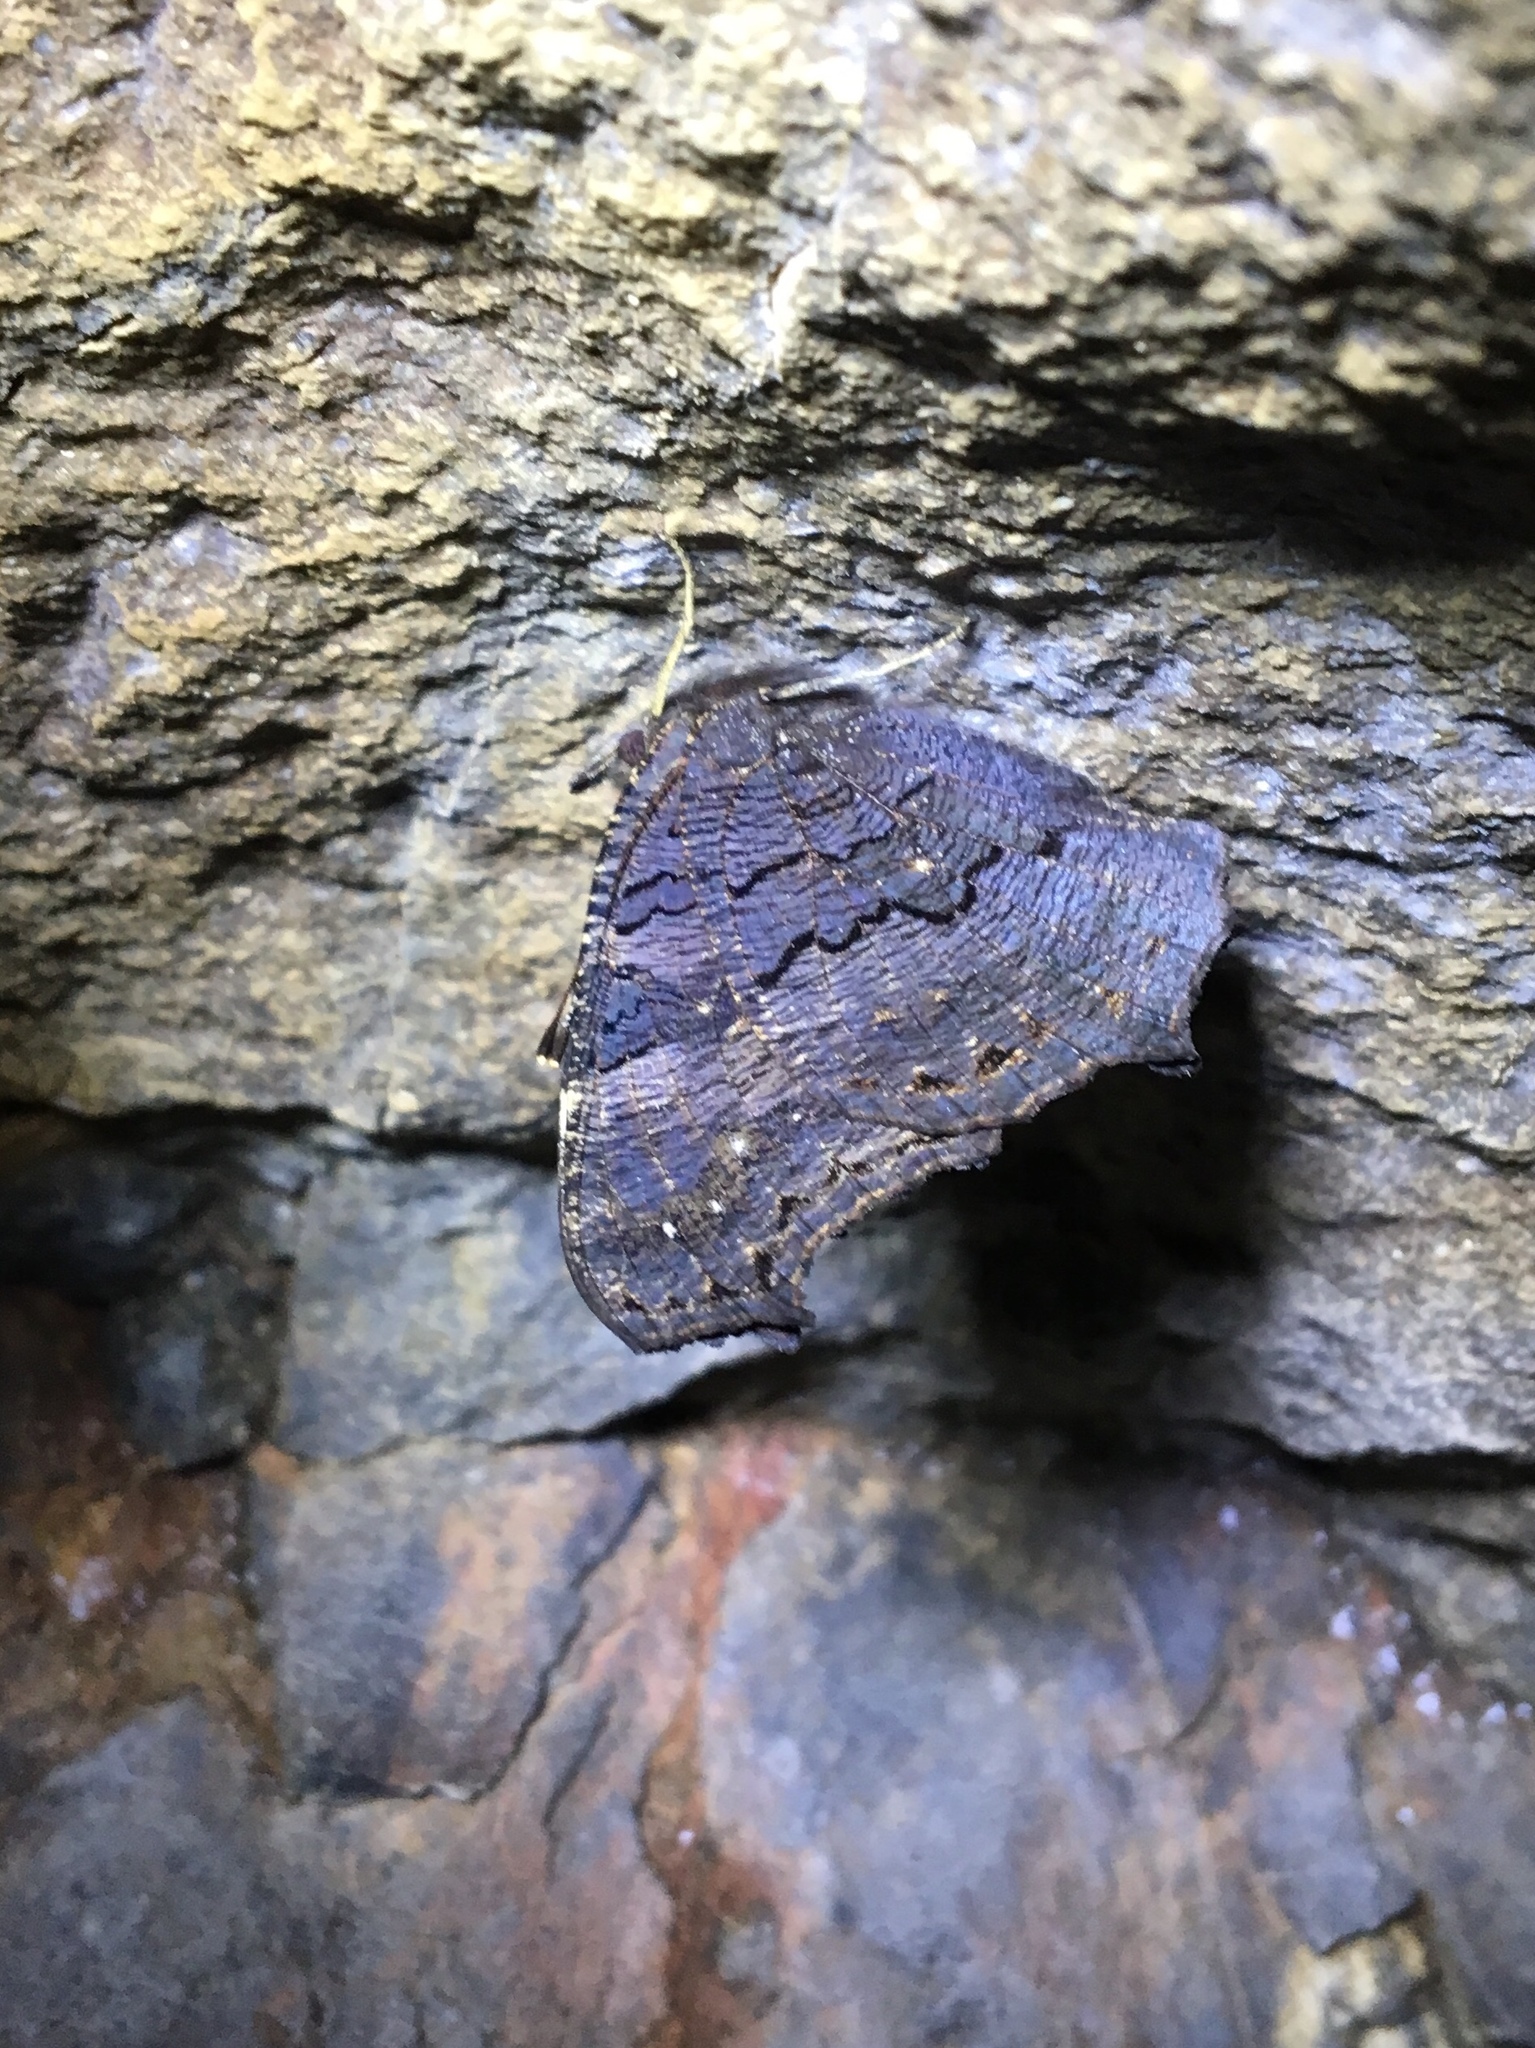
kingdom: Animalia
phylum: Arthropoda
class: Insecta
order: Lepidoptera
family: Nymphalidae
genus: Aglais
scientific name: Aglais io
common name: Peacock
